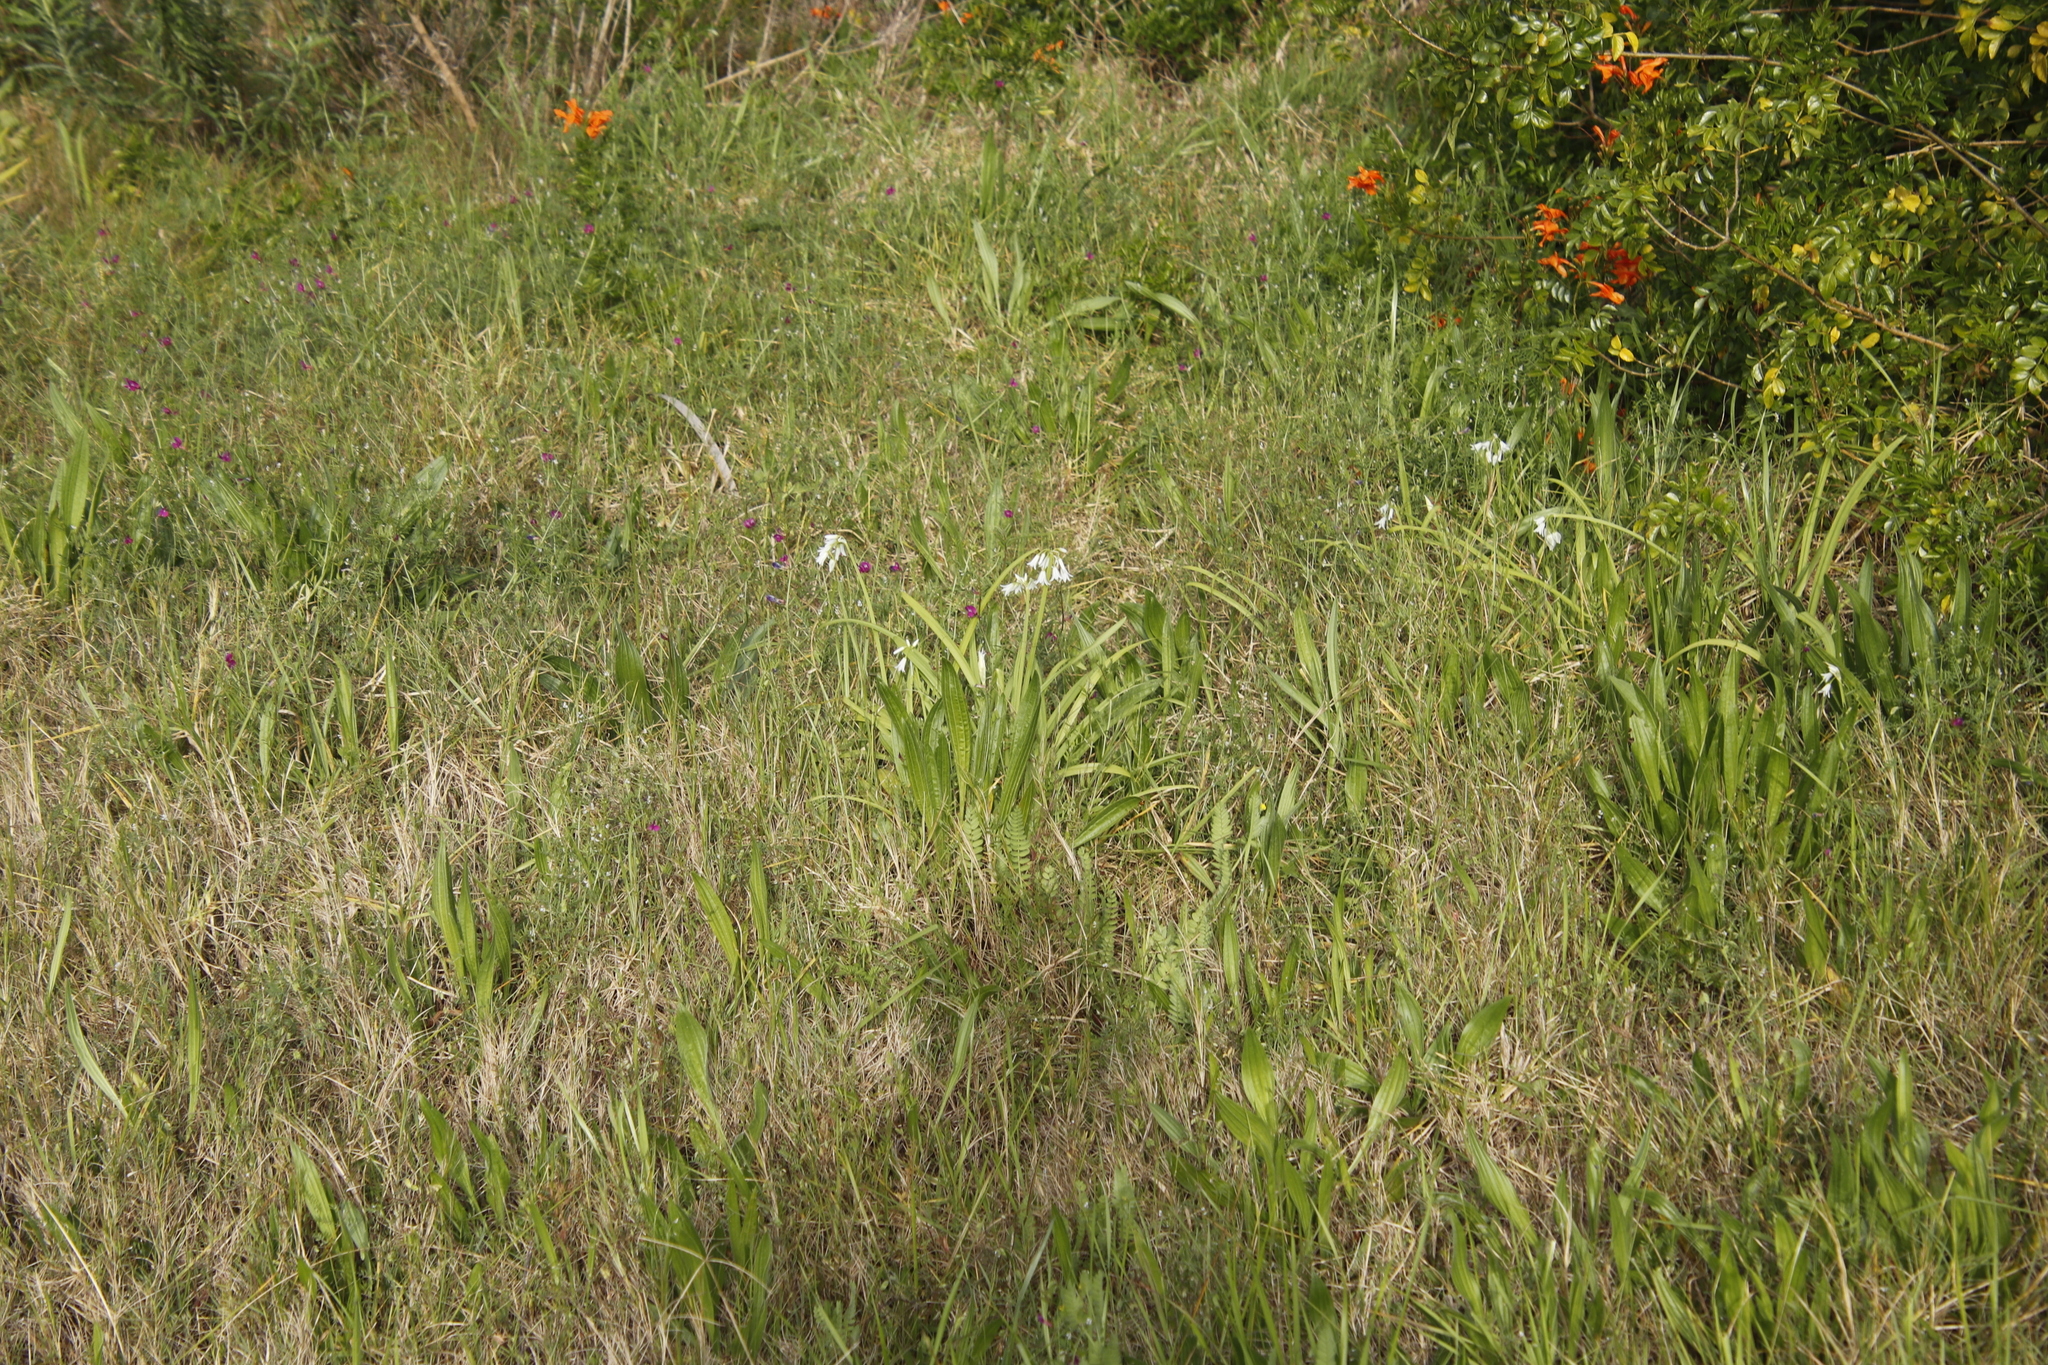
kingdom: Plantae
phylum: Tracheophyta
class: Liliopsida
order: Asparagales
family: Amaryllidaceae
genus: Allium
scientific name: Allium triquetrum
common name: Three-cornered garlic
